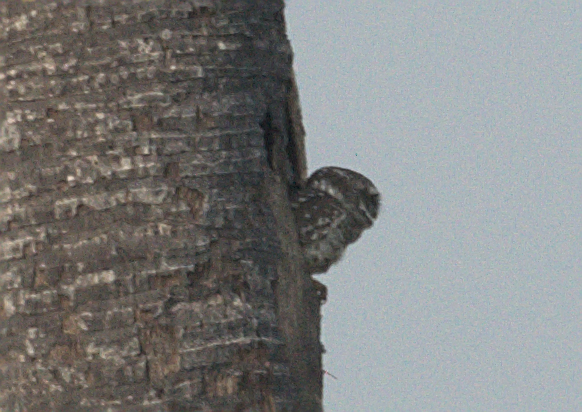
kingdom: Animalia
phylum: Chordata
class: Aves
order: Strigiformes
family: Strigidae
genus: Athene
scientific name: Athene brama
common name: Spotted owlet
